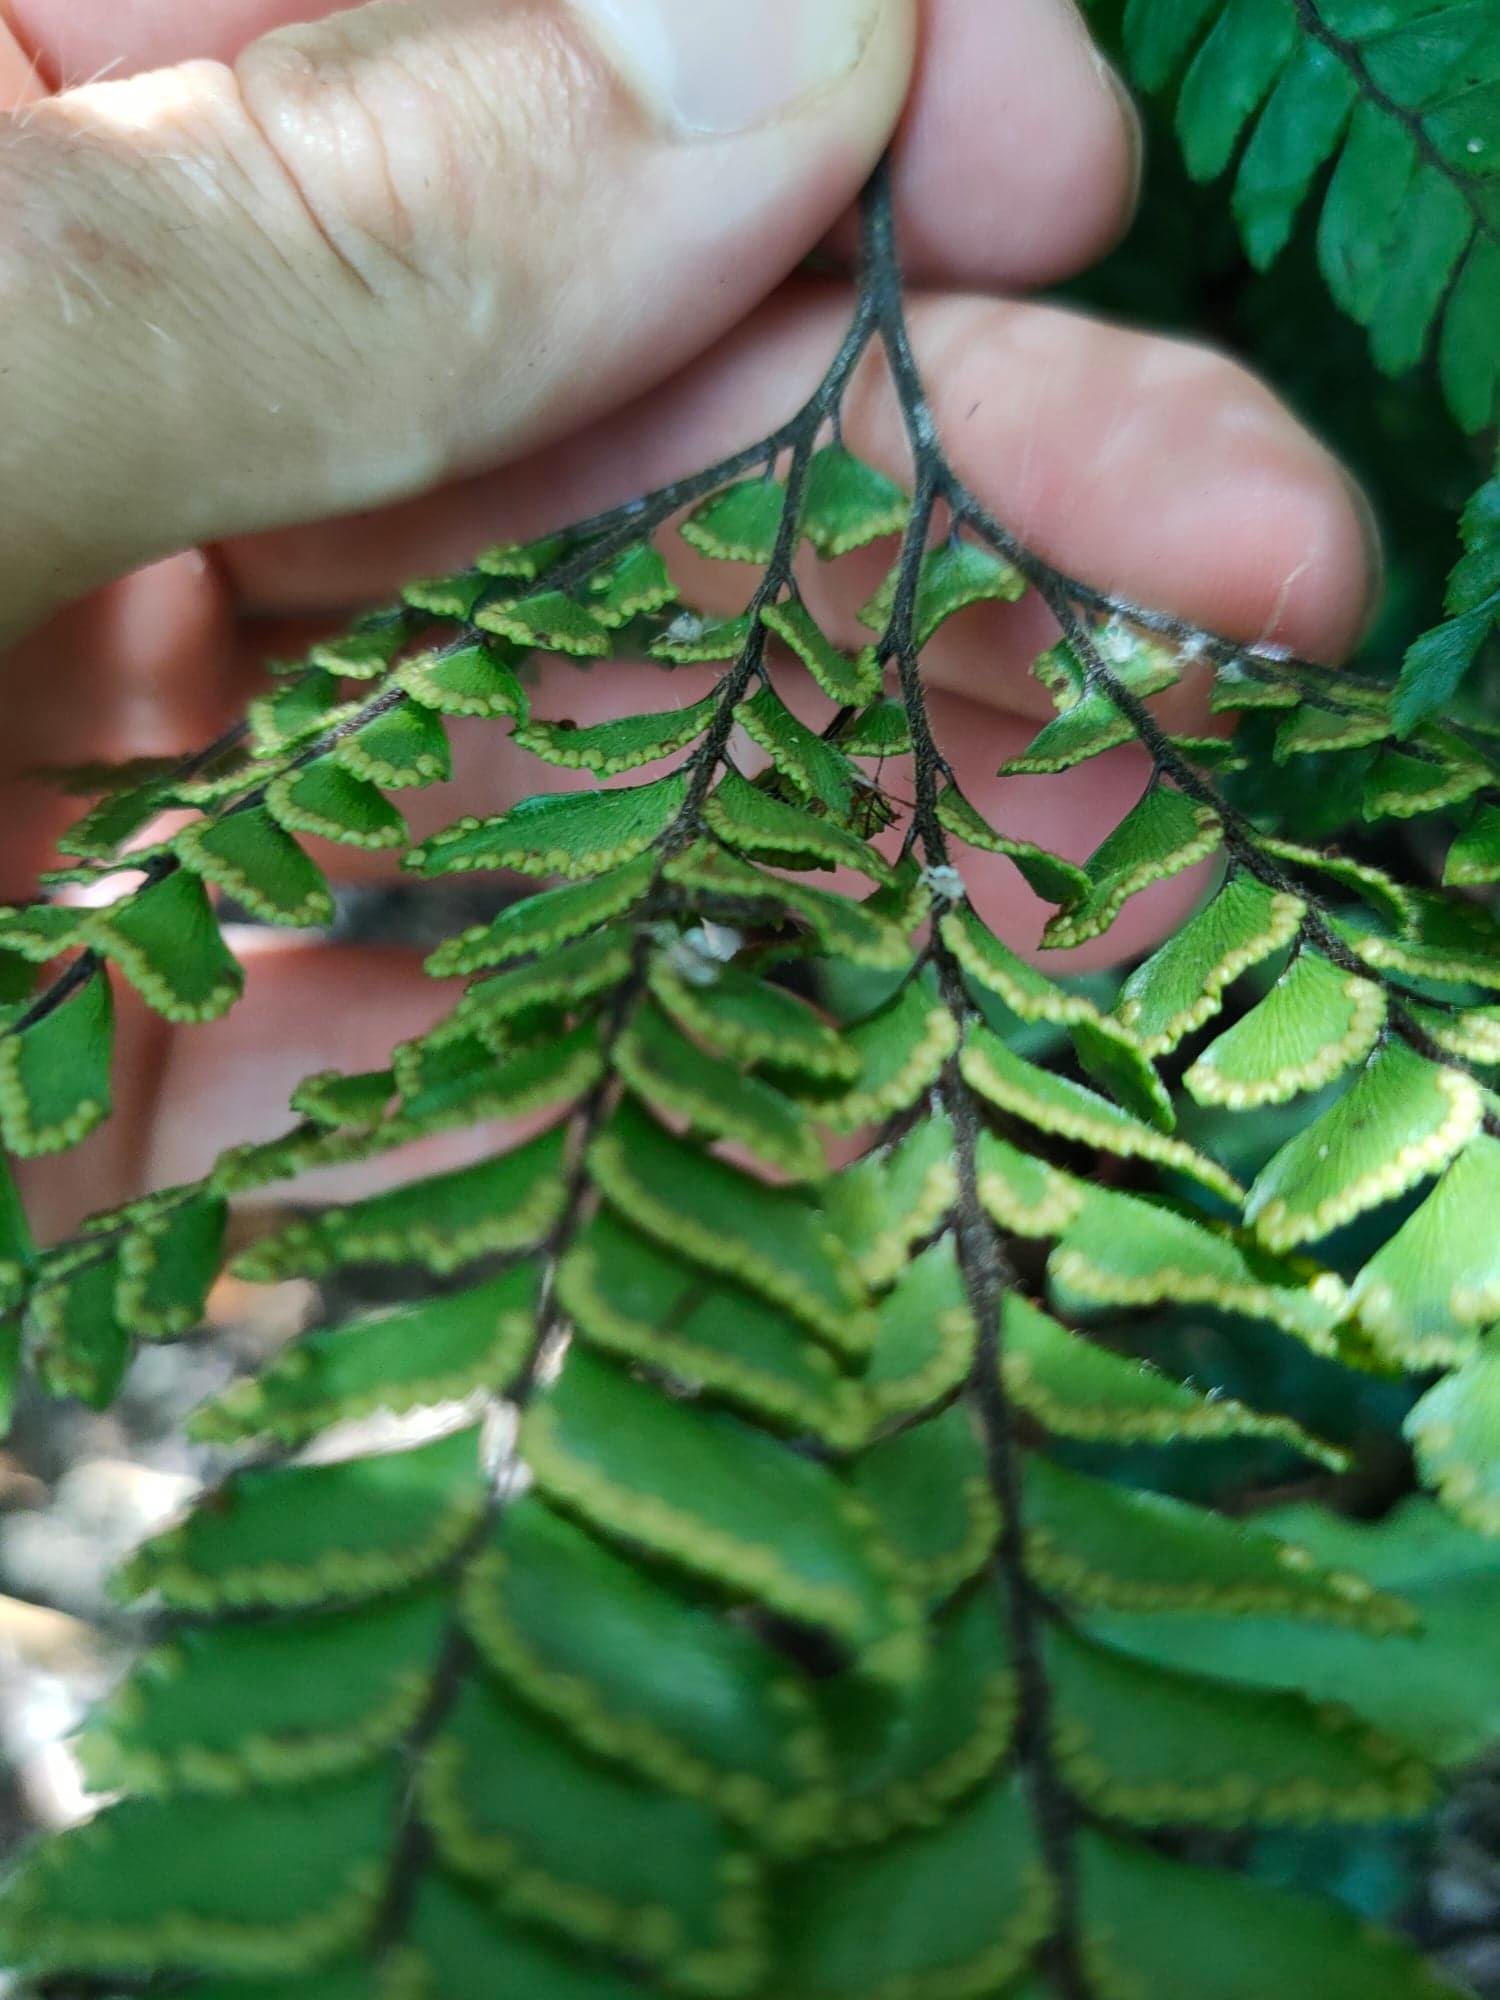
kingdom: Plantae
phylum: Tracheophyta
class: Polypodiopsida
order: Polypodiales
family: Pteridaceae
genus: Adiantum
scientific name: Adiantum hispidulum
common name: Rough maidenhair
